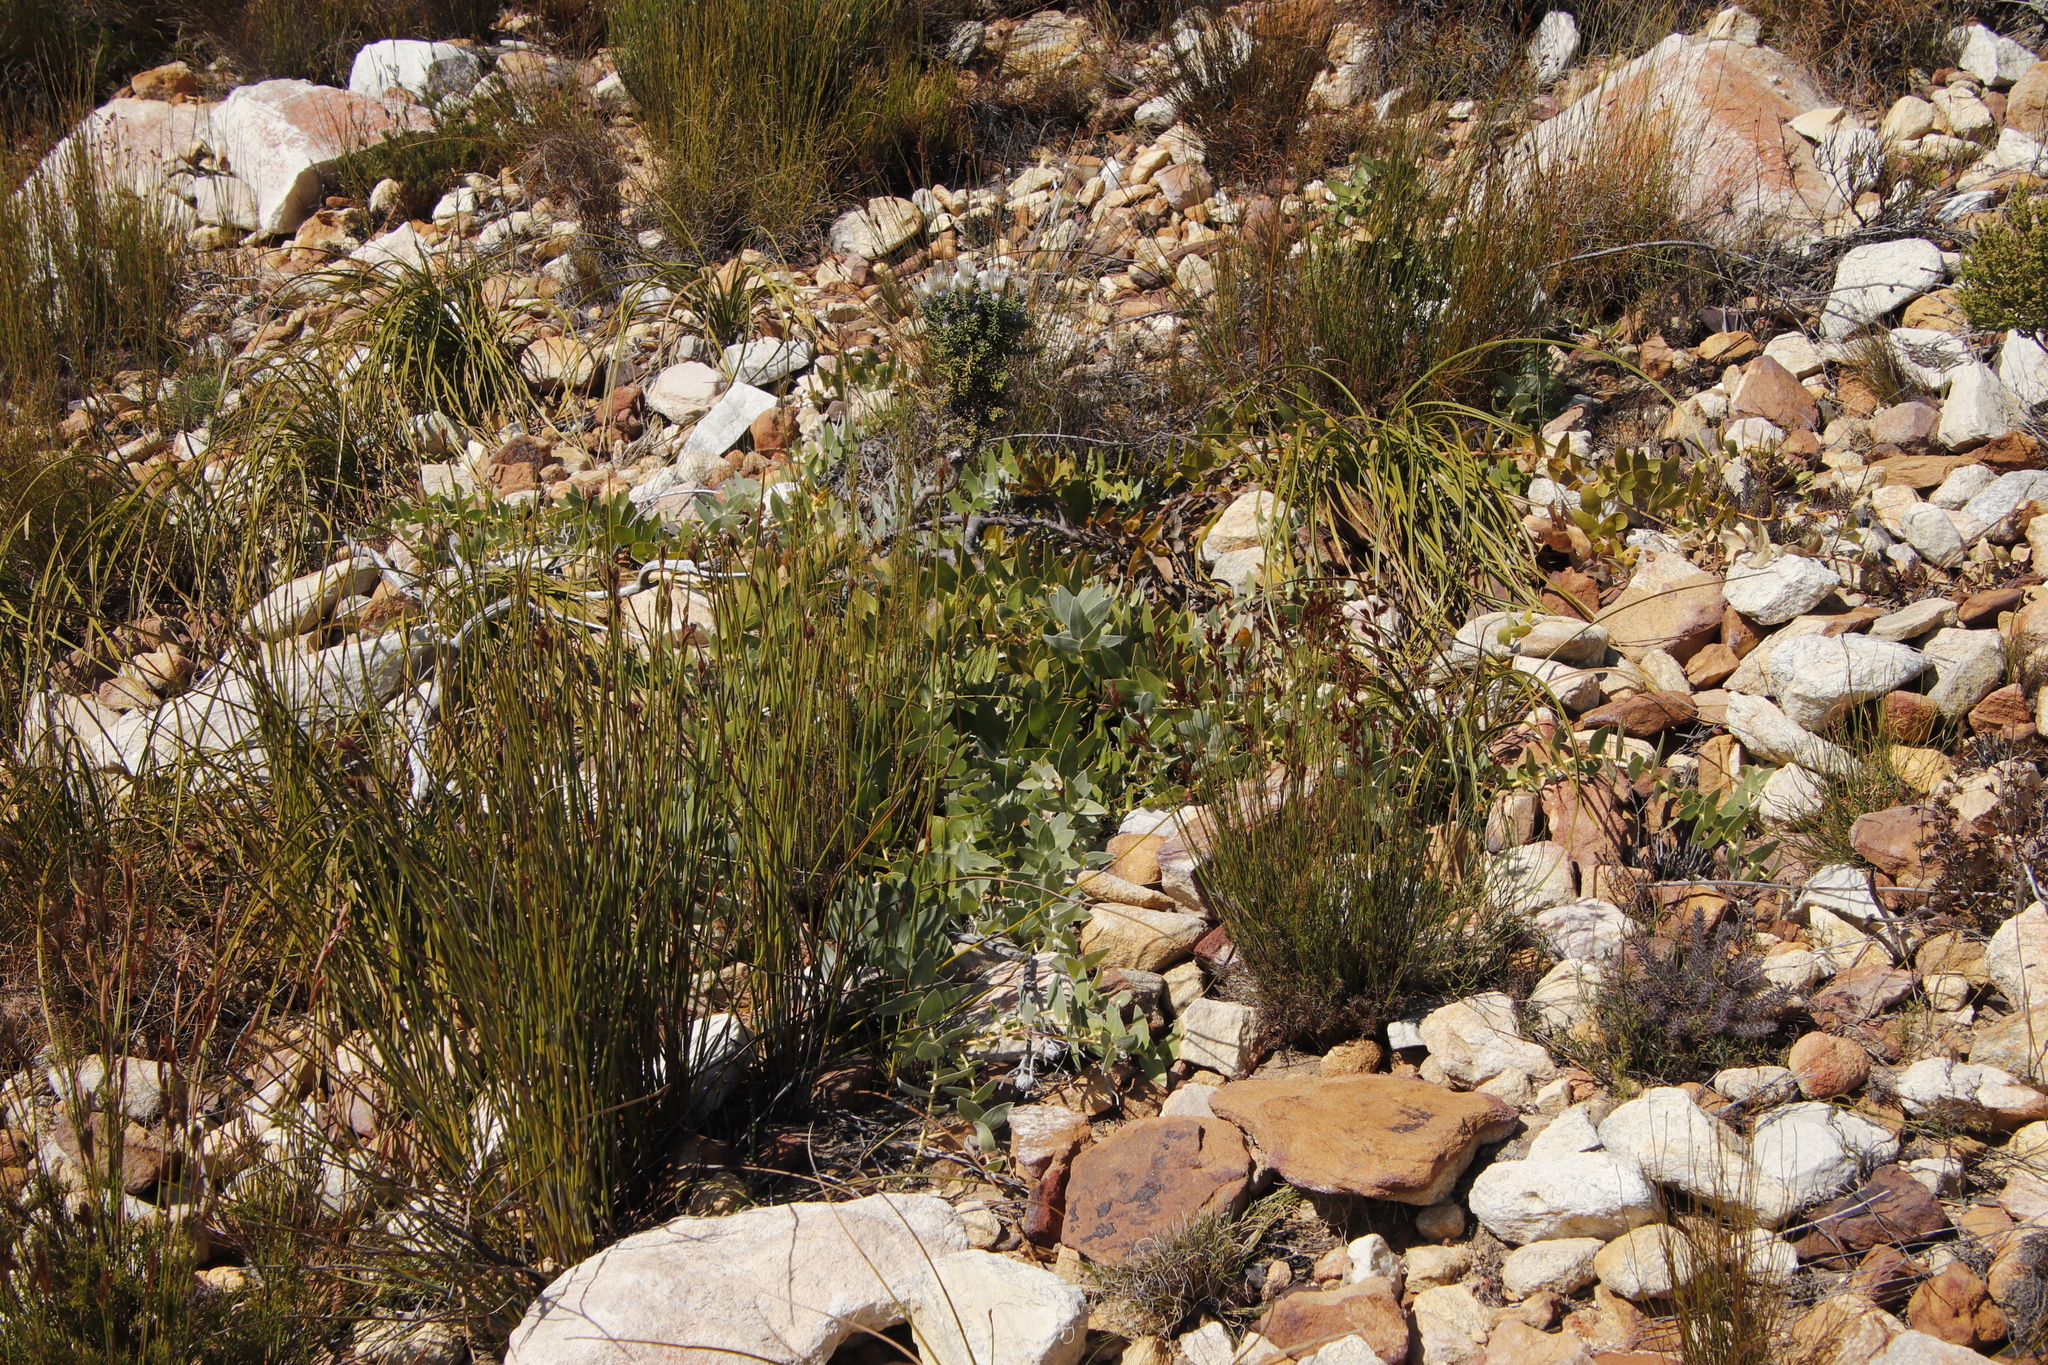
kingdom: Plantae
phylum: Tracheophyta
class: Magnoliopsida
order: Proteales
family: Proteaceae
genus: Leucospermum
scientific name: Leucospermum cordatum
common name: Heart-leaf pincushion
